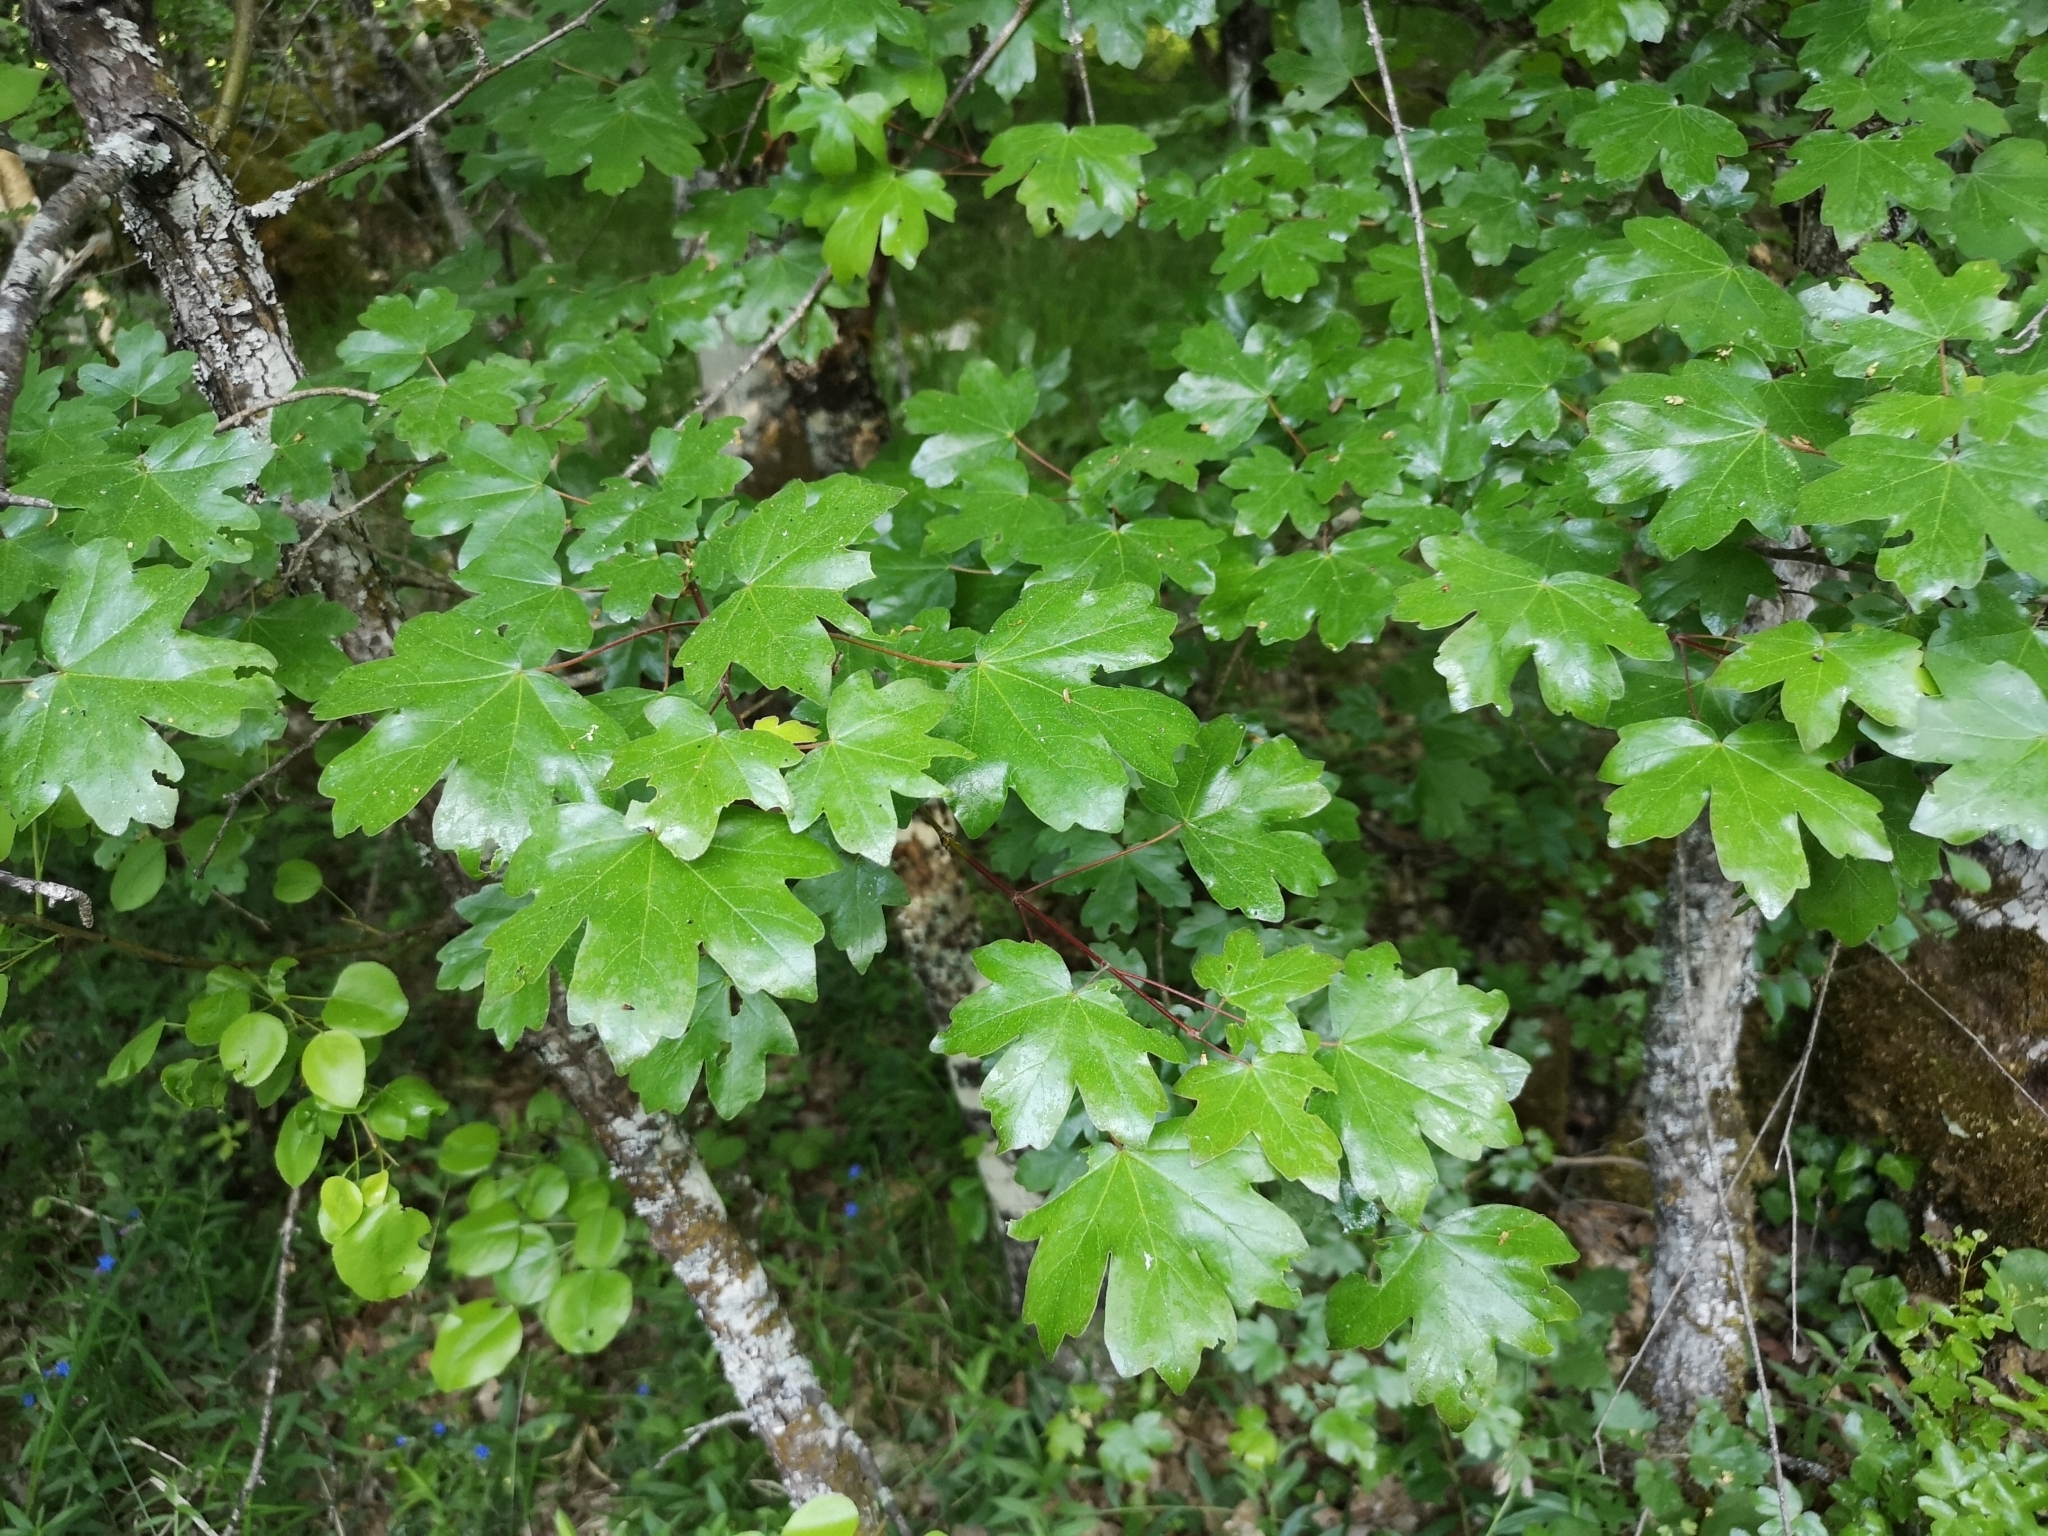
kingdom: Plantae
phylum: Tracheophyta
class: Magnoliopsida
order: Sapindales
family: Sapindaceae
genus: Acer
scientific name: Acer campestre
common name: Field maple
